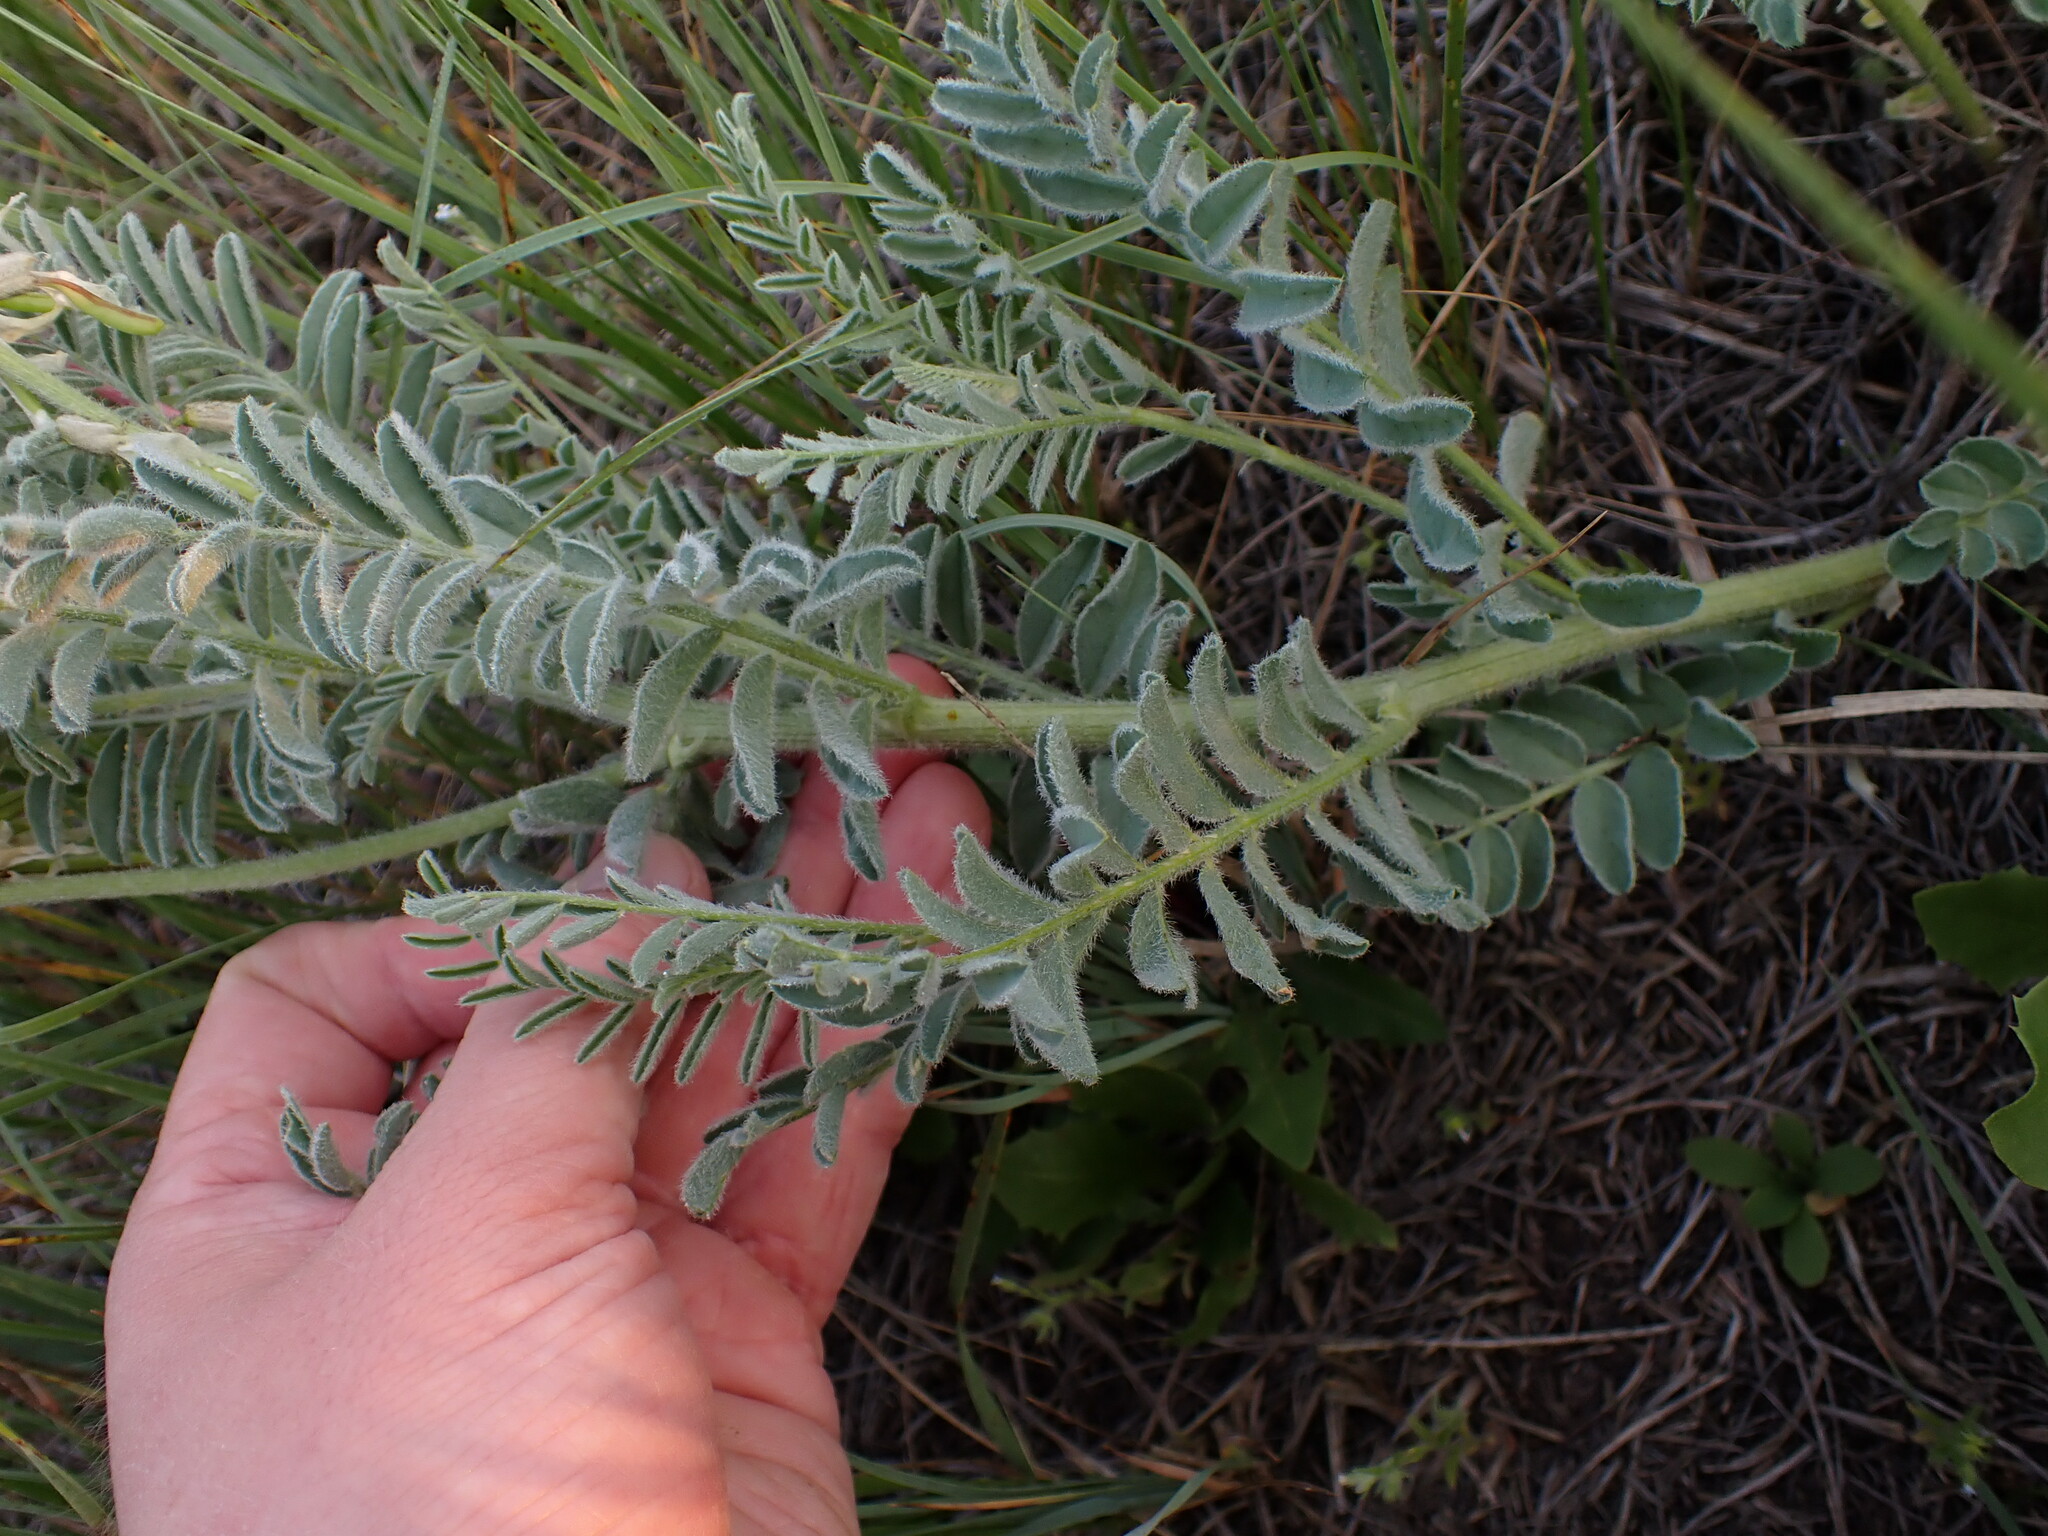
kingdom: Plantae
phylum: Tracheophyta
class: Magnoliopsida
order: Fabales
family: Fabaceae
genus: Astragalus
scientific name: Astragalus drummondii
